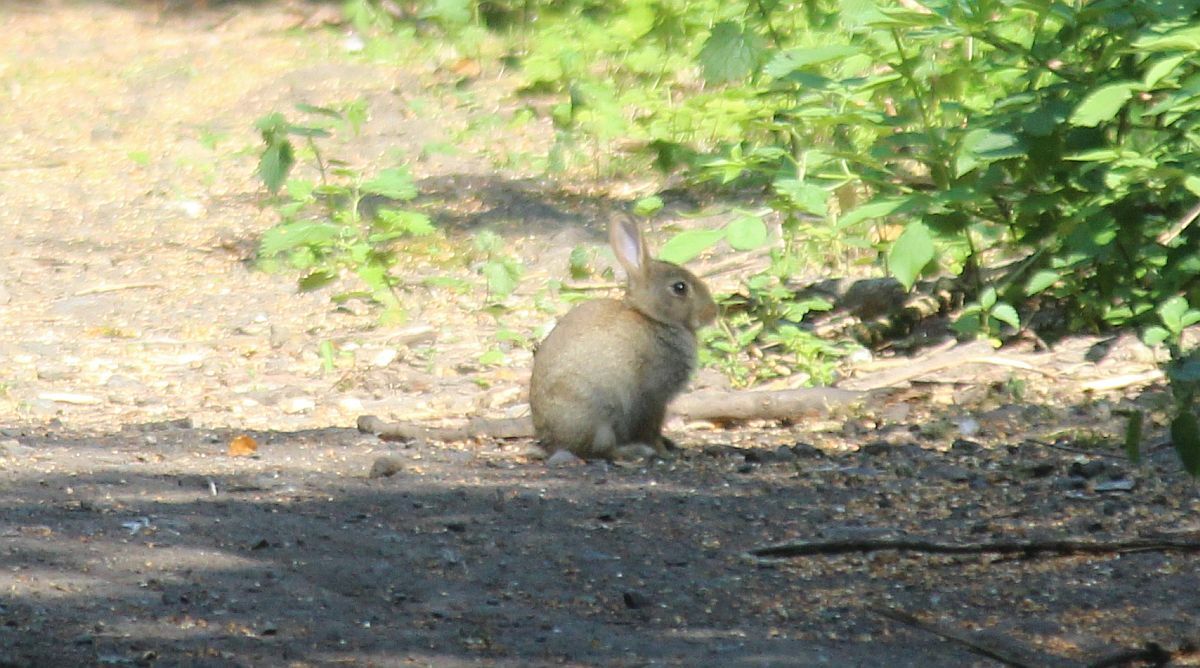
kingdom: Animalia
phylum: Chordata
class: Mammalia
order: Lagomorpha
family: Leporidae
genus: Oryctolagus
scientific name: Oryctolagus cuniculus
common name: European rabbit
